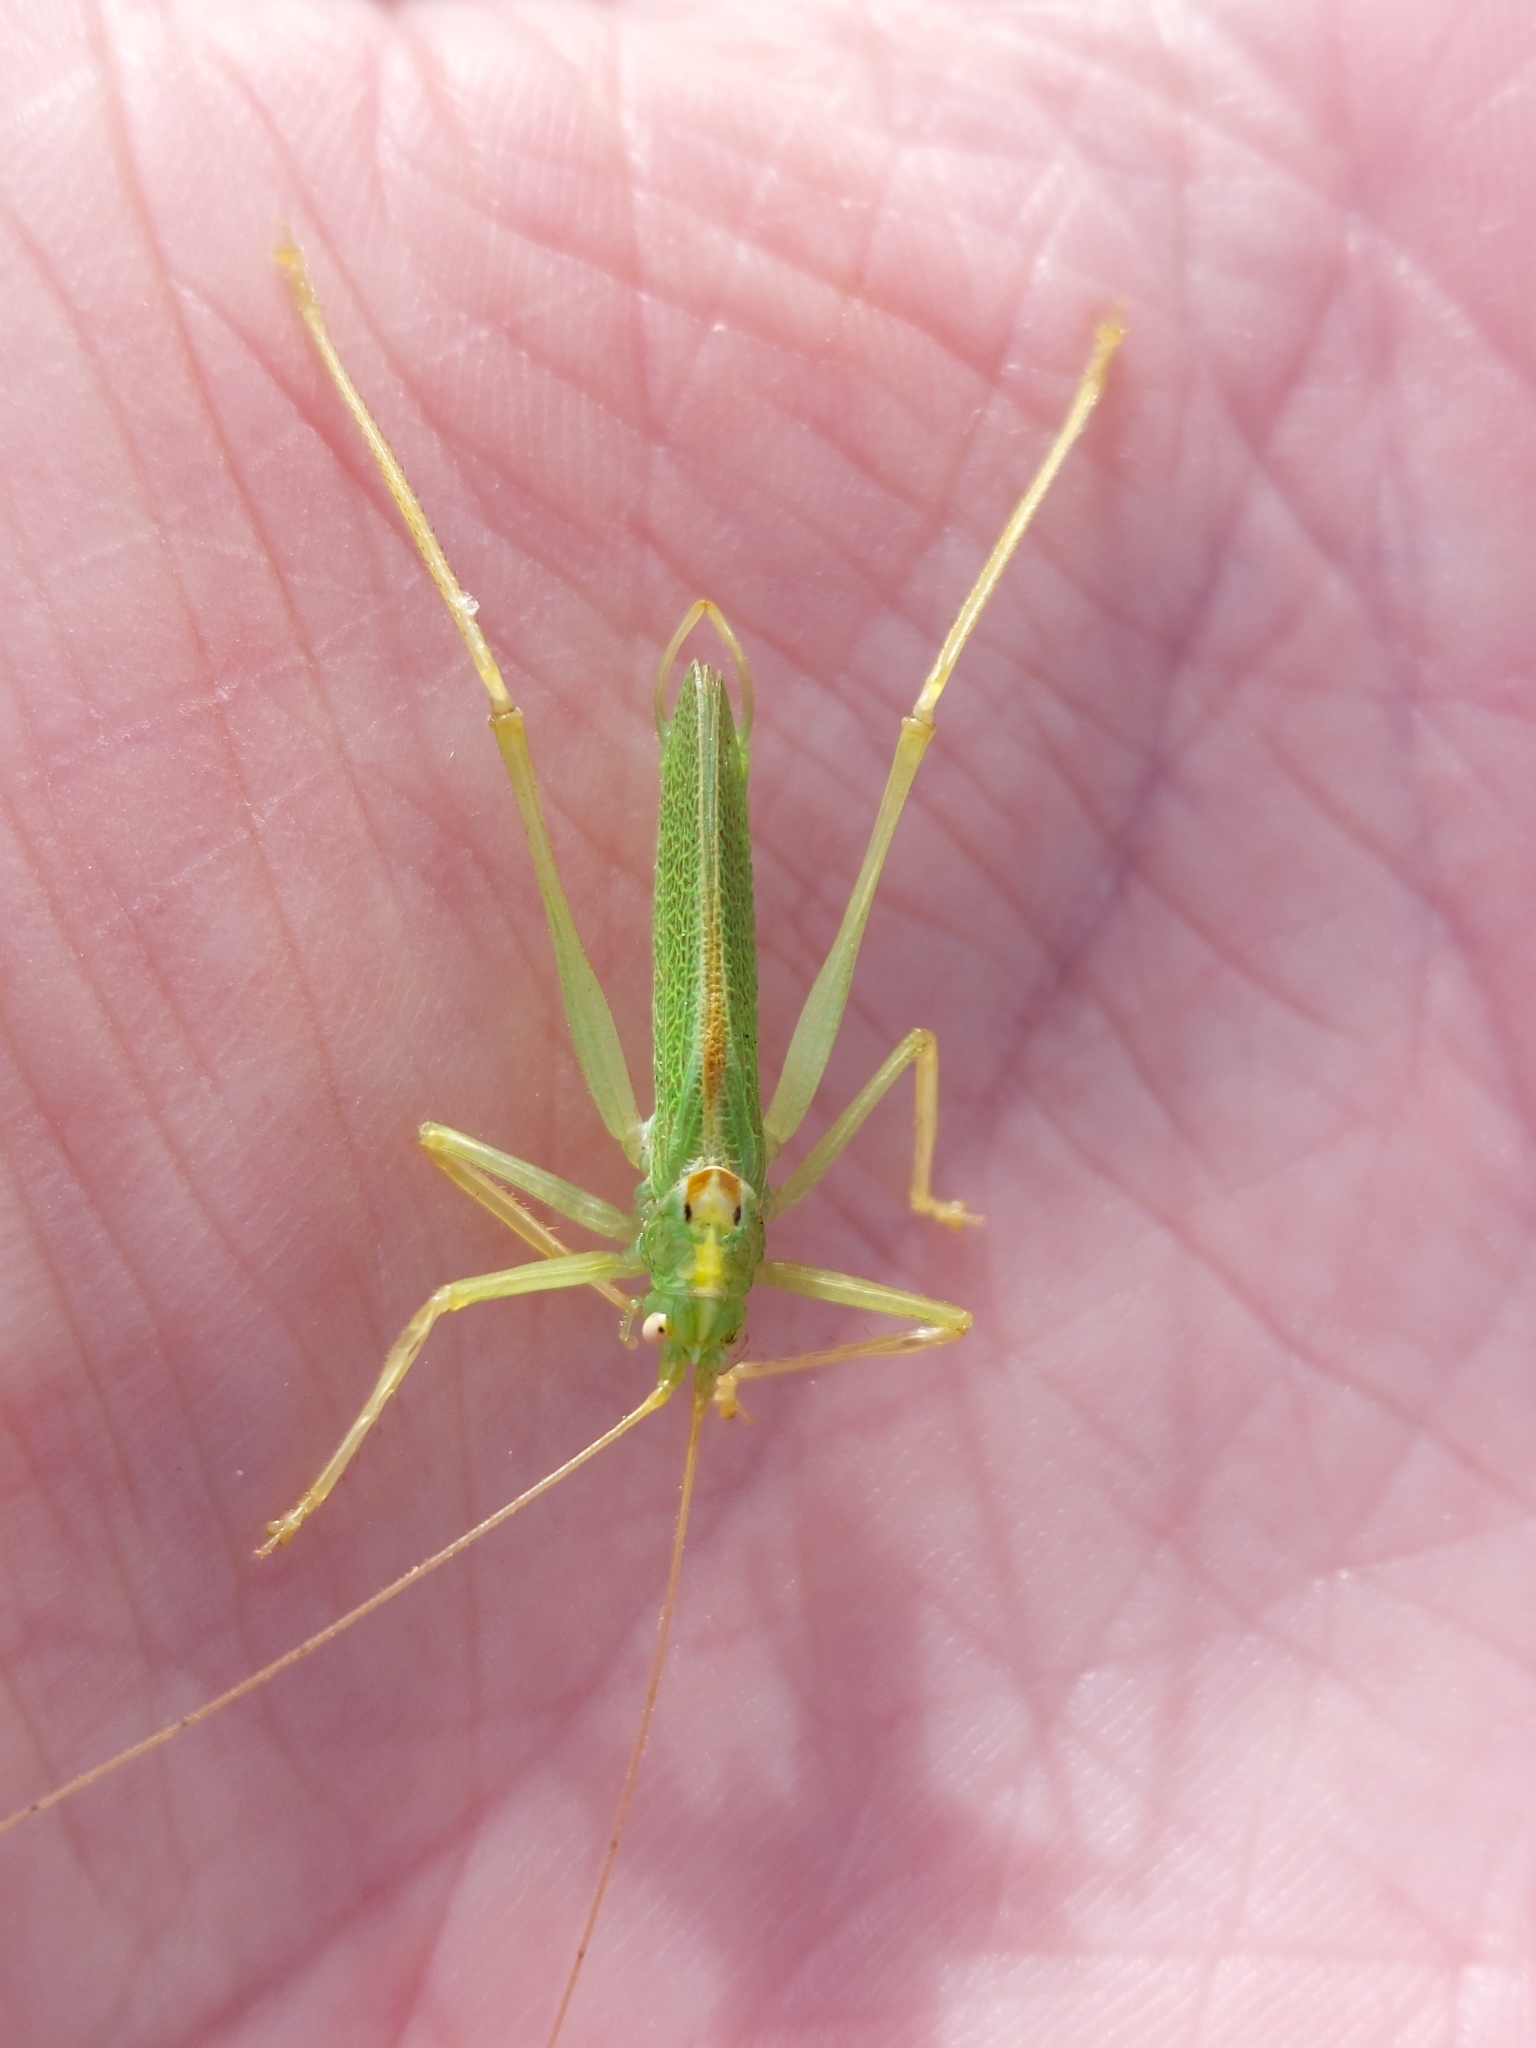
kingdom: Animalia
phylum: Arthropoda
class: Insecta
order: Orthoptera
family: Tettigoniidae
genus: Meconema
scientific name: Meconema thalassinum
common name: Oak bush-cricket
